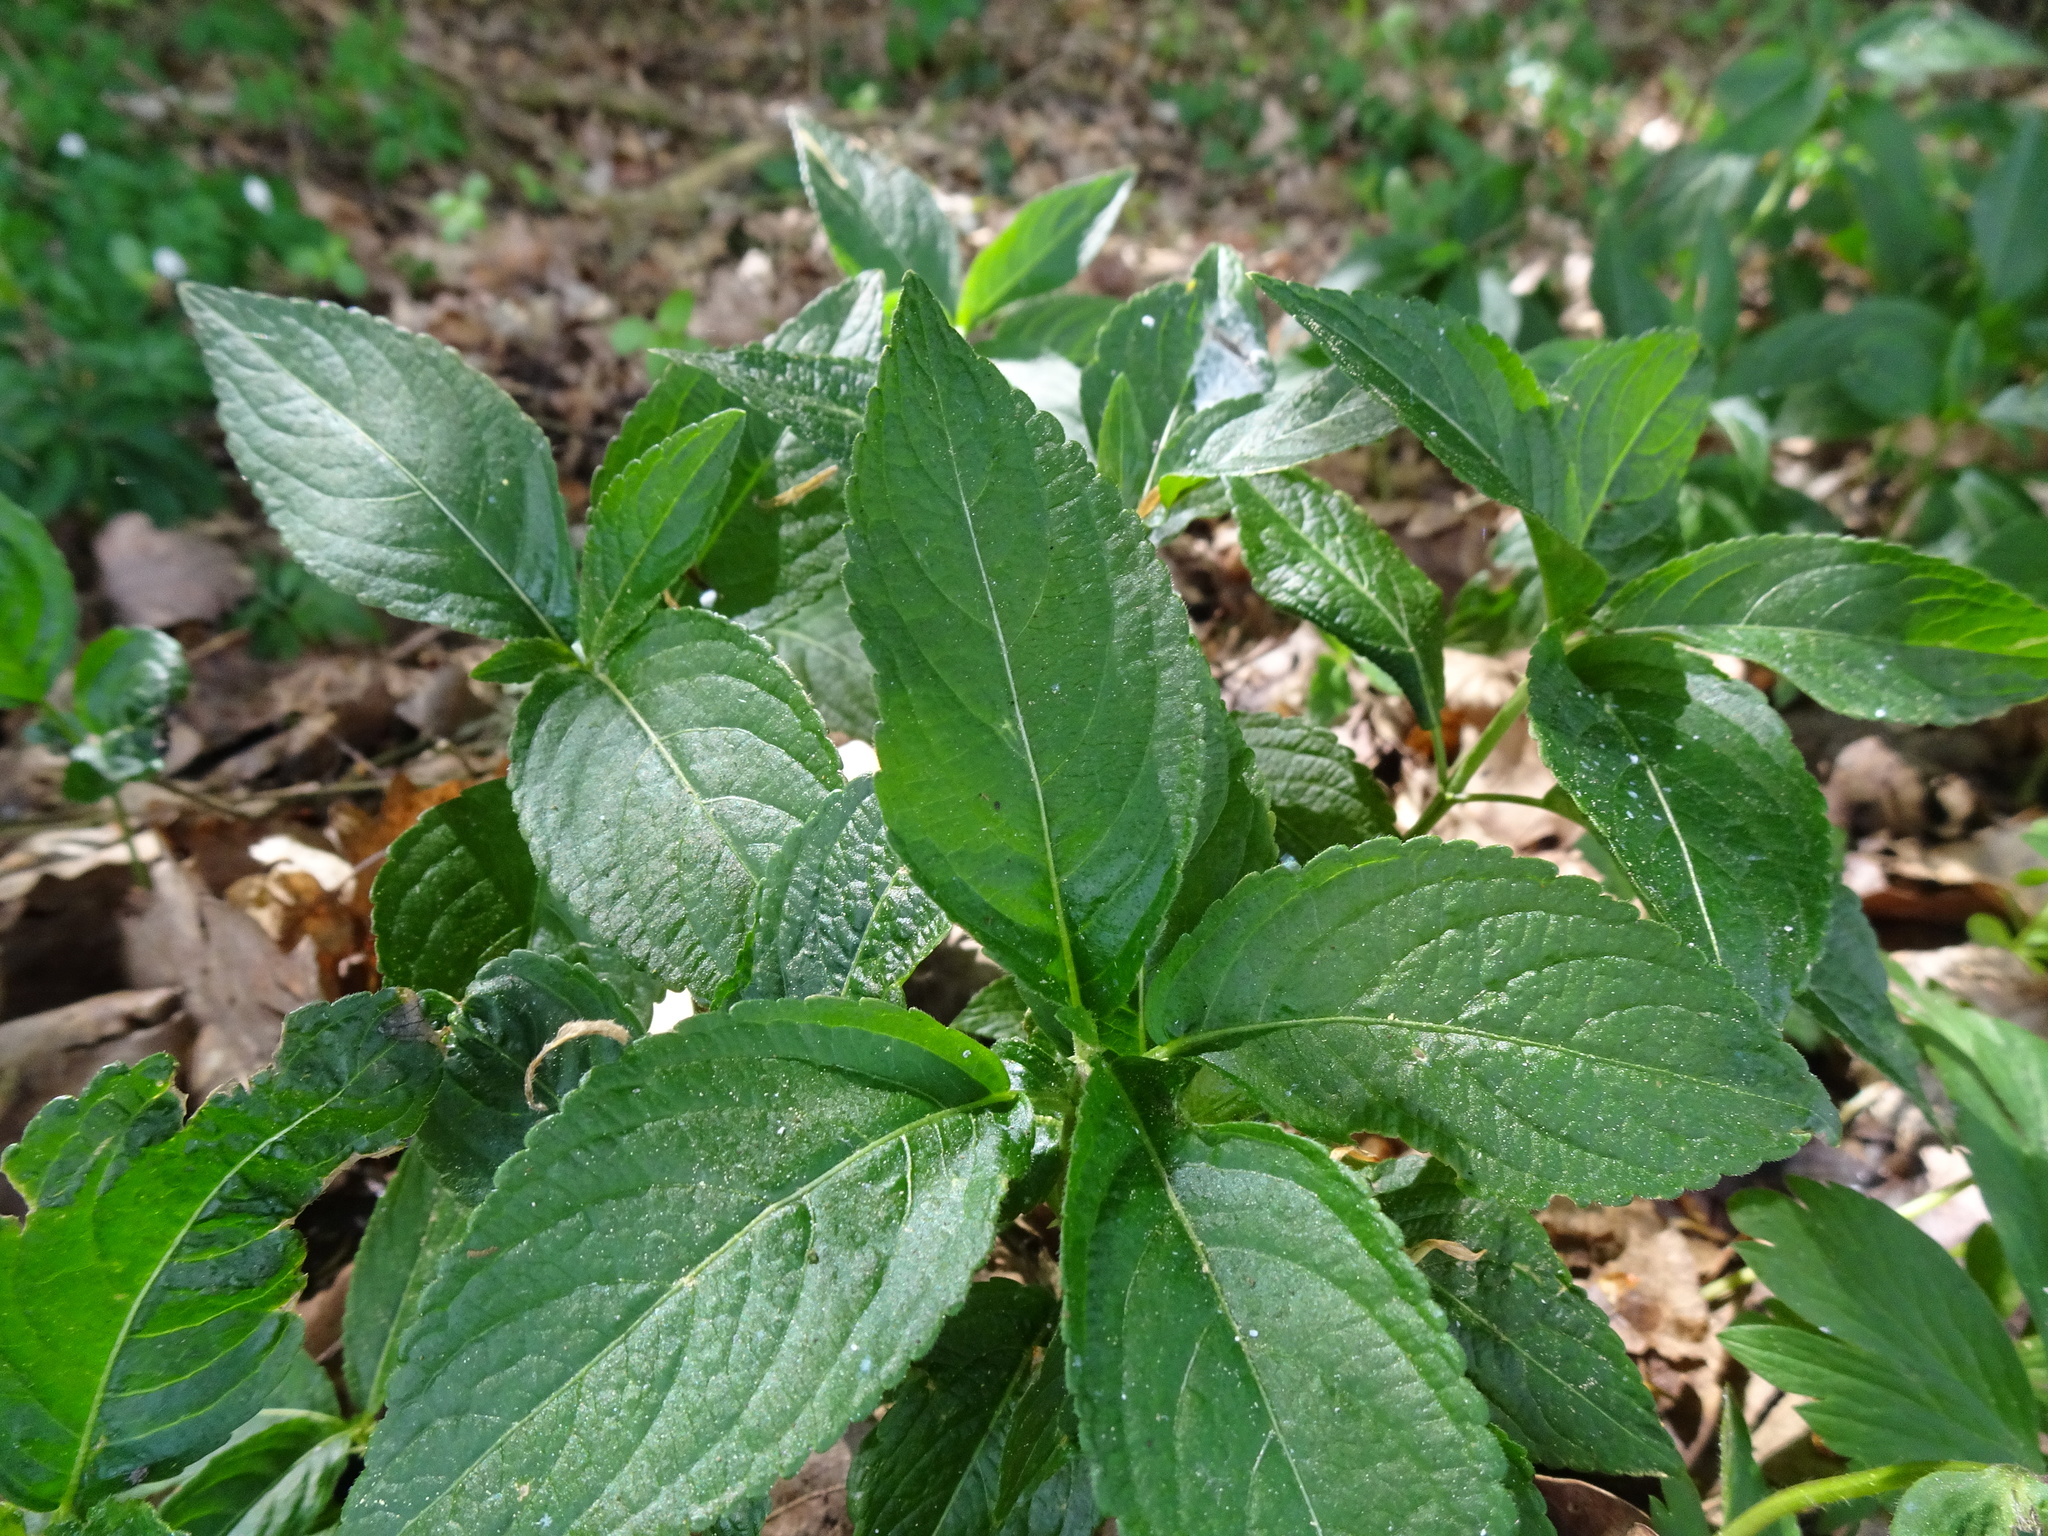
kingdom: Plantae
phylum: Tracheophyta
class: Magnoliopsida
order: Malpighiales
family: Euphorbiaceae
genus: Mercurialis
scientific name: Mercurialis perennis
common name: Dog mercury
